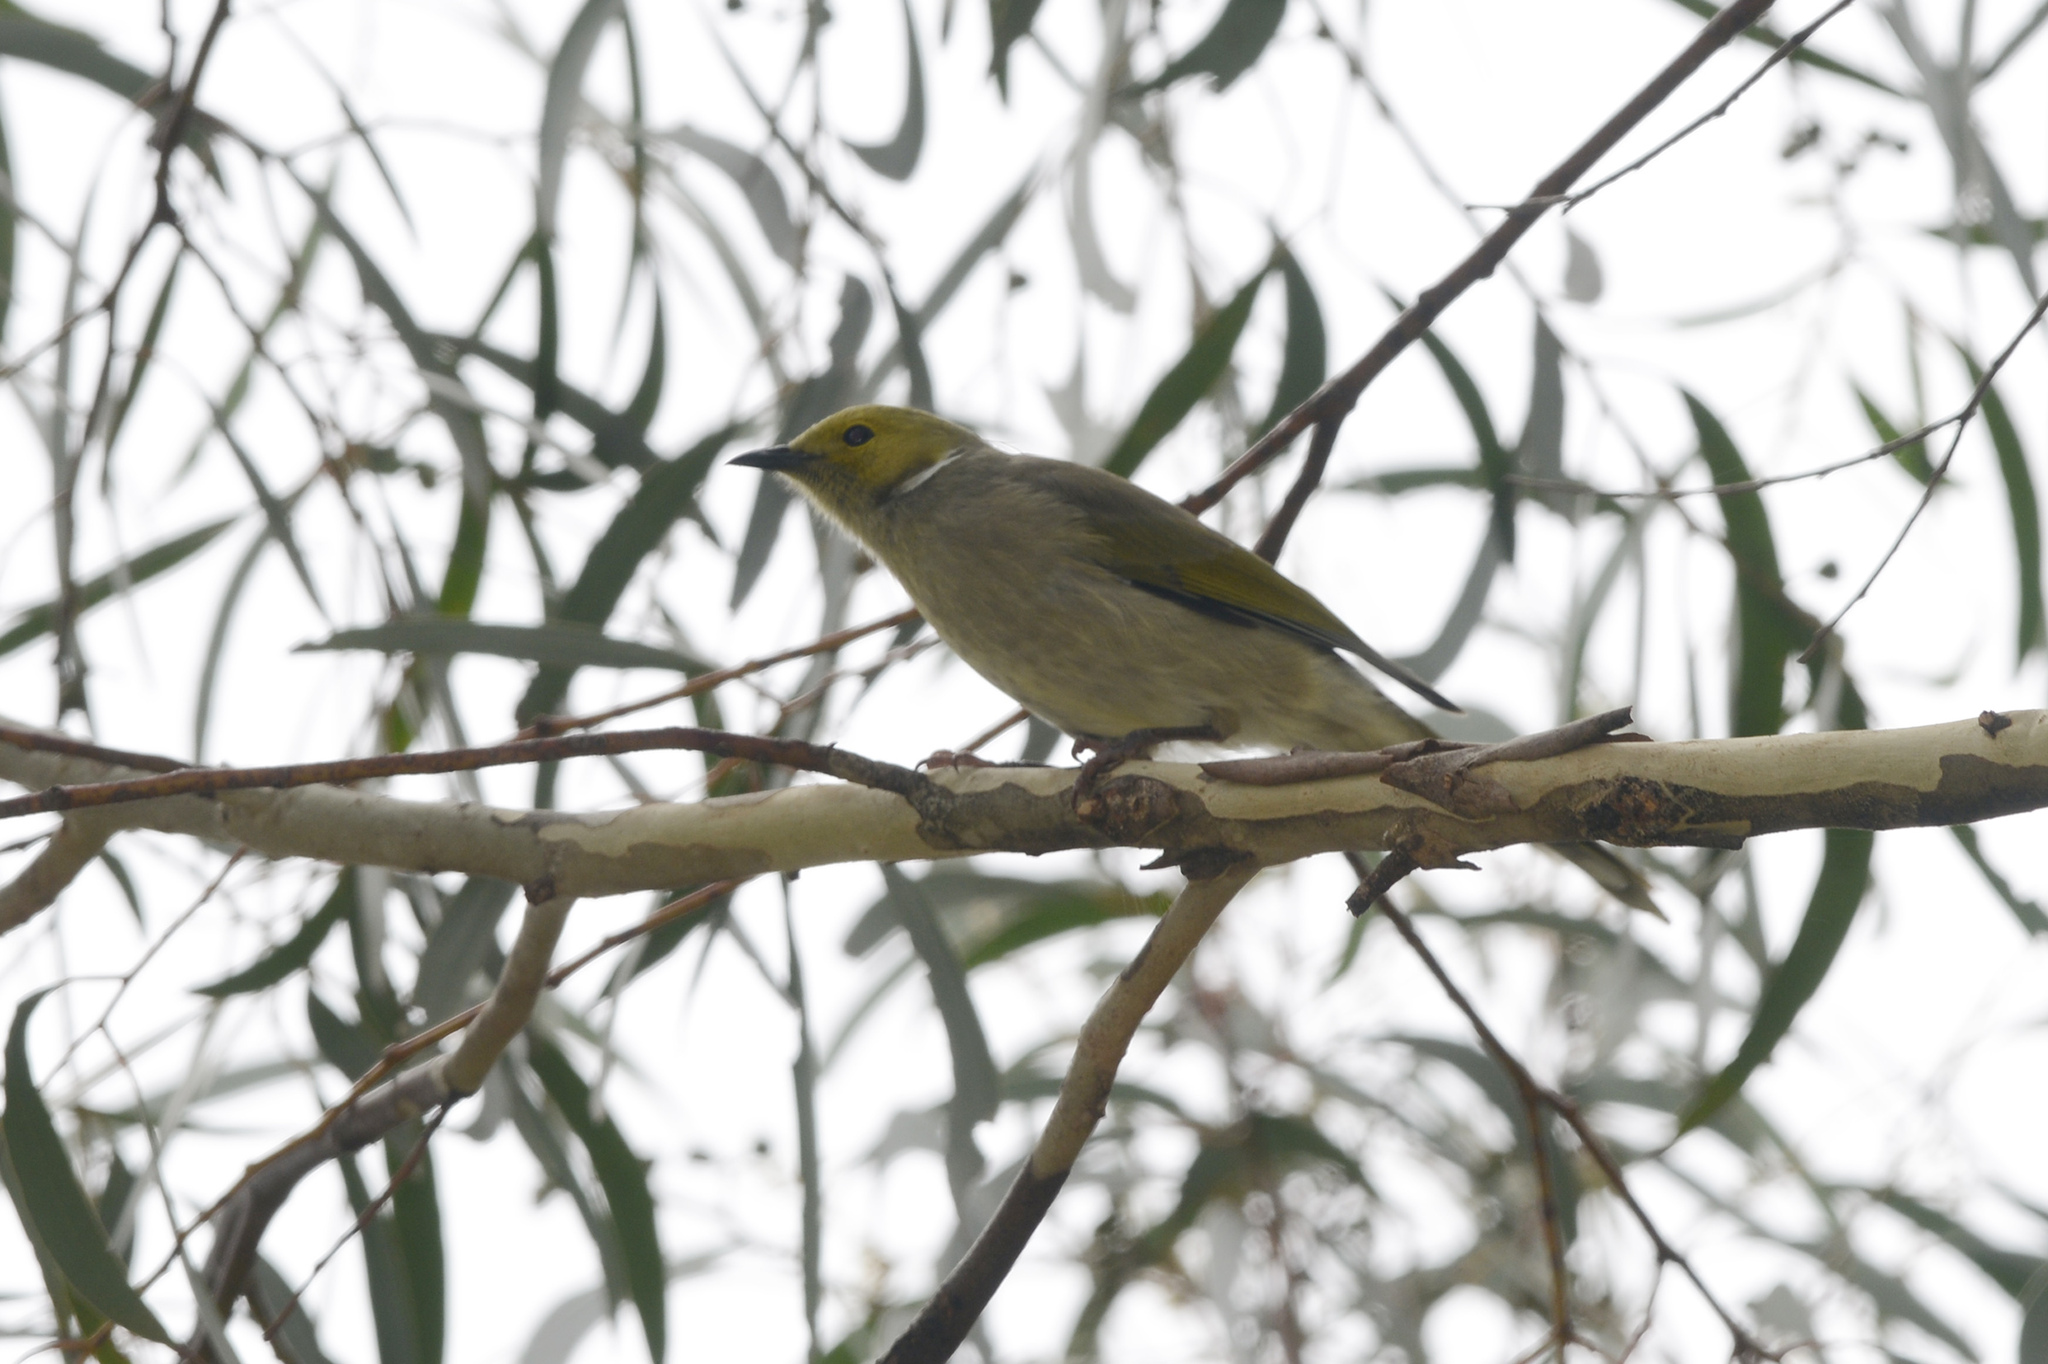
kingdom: Animalia
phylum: Chordata
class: Aves
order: Passeriformes
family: Meliphagidae
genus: Ptilotula
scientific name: Ptilotula penicillata
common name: White-plumed honeyeater
